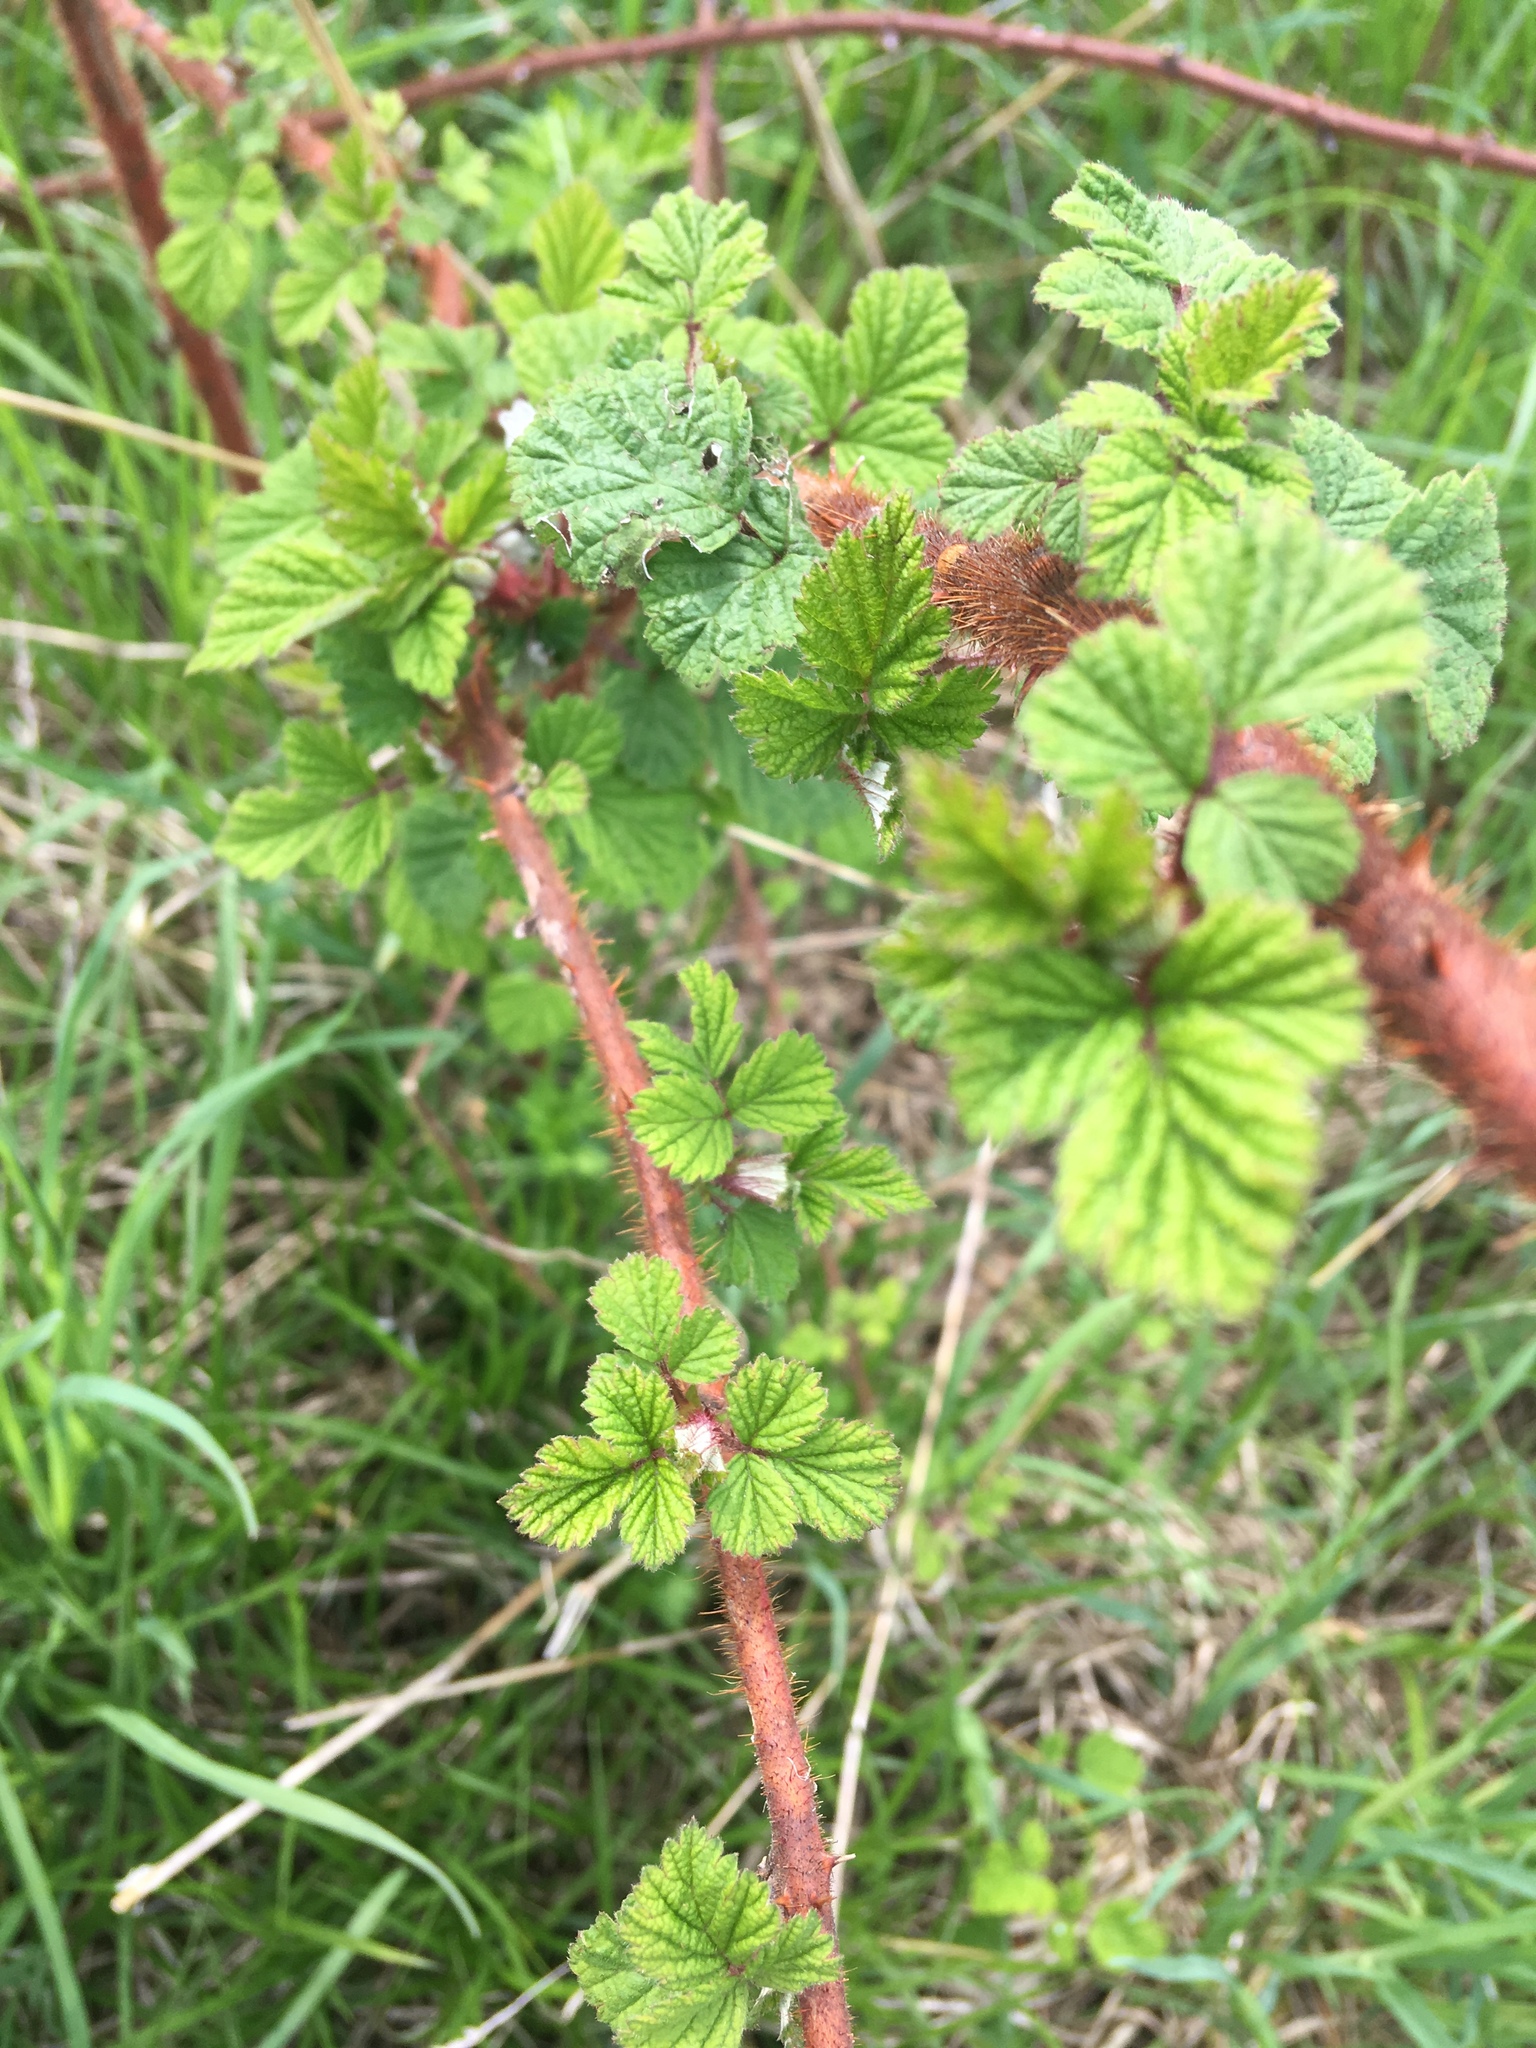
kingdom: Plantae
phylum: Tracheophyta
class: Magnoliopsida
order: Rosales
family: Rosaceae
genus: Rubus
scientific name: Rubus phoenicolasius
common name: Japanese wineberry
